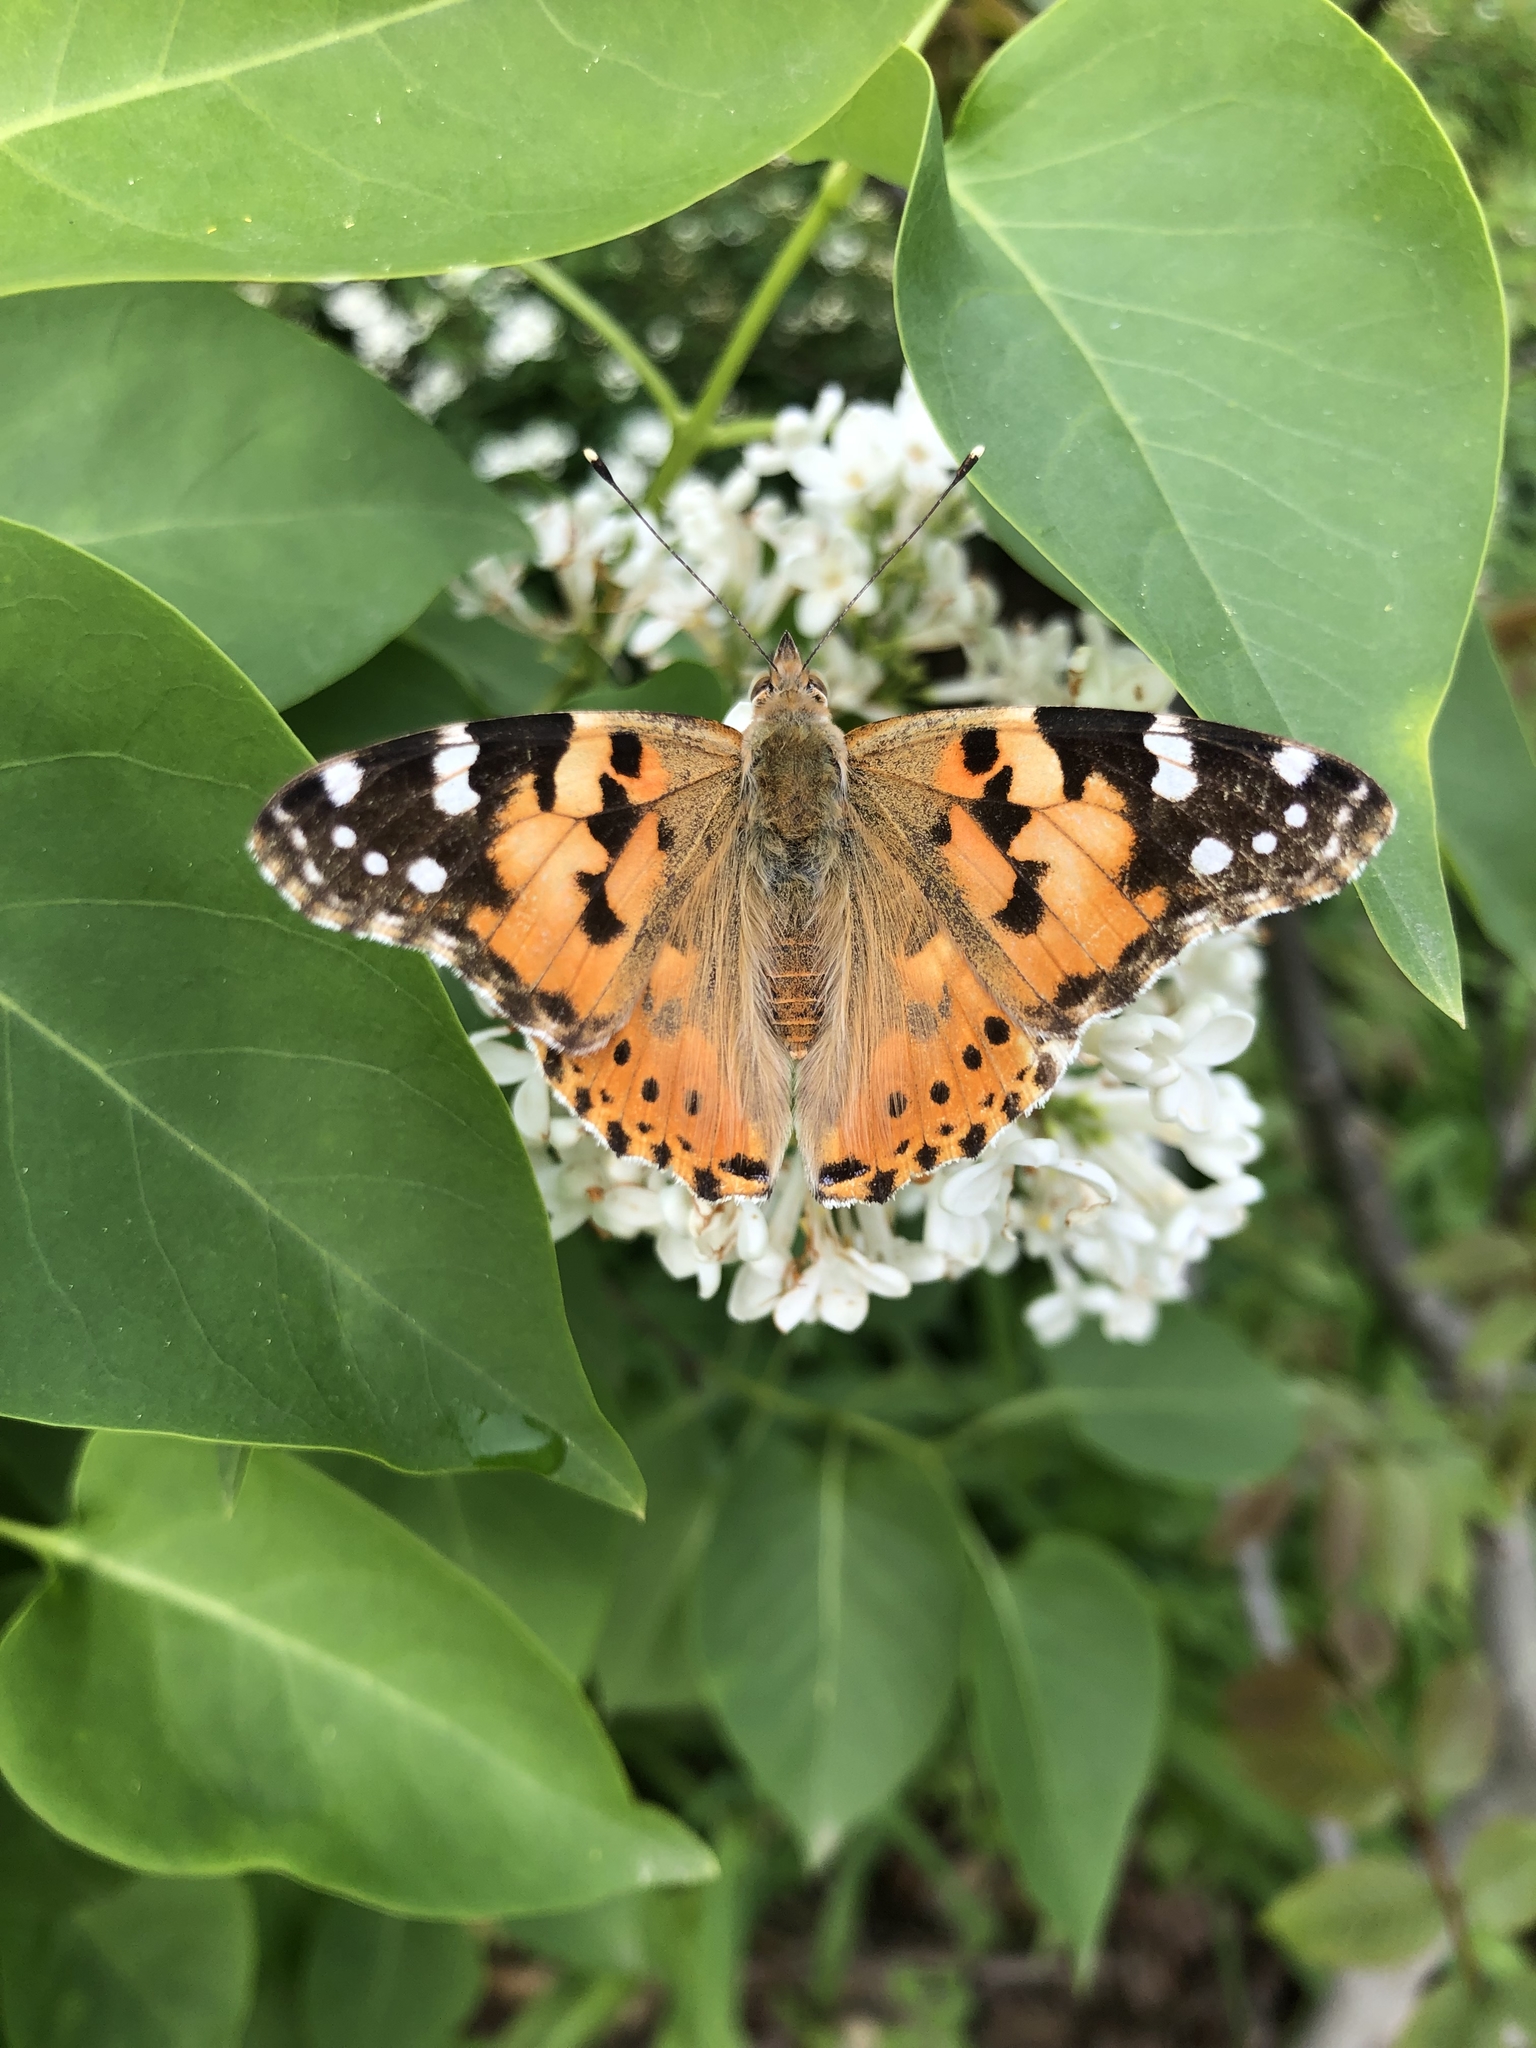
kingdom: Animalia
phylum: Arthropoda
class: Insecta
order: Lepidoptera
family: Nymphalidae
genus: Vanessa
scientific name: Vanessa cardui
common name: Painted lady
